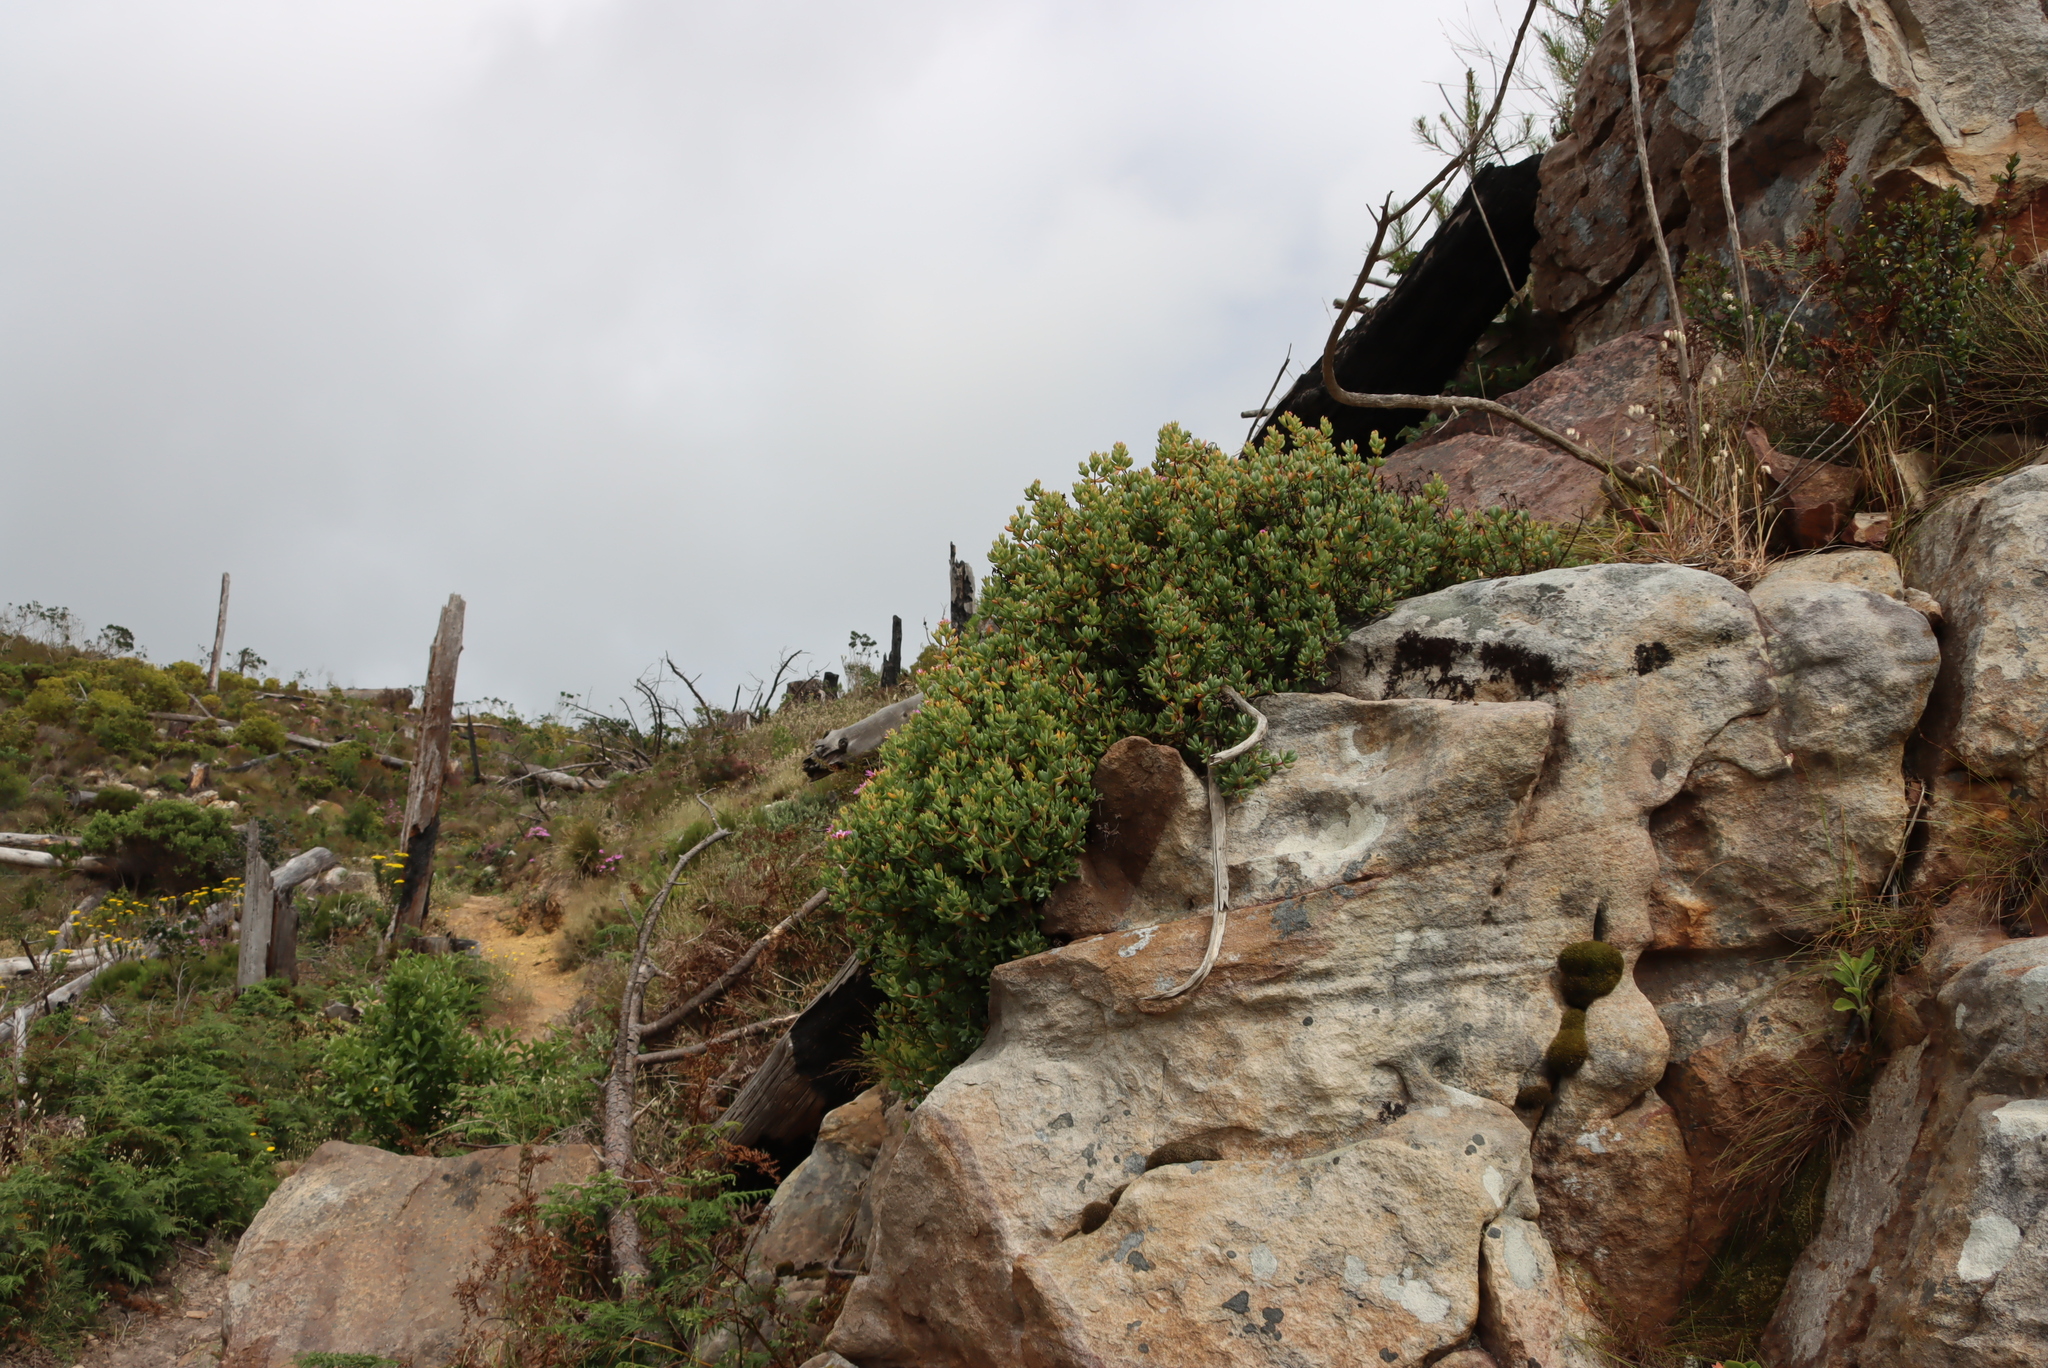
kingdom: Plantae
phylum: Tracheophyta
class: Magnoliopsida
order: Caryophyllales
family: Aizoaceae
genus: Oscularia
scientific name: Oscularia falciformis
